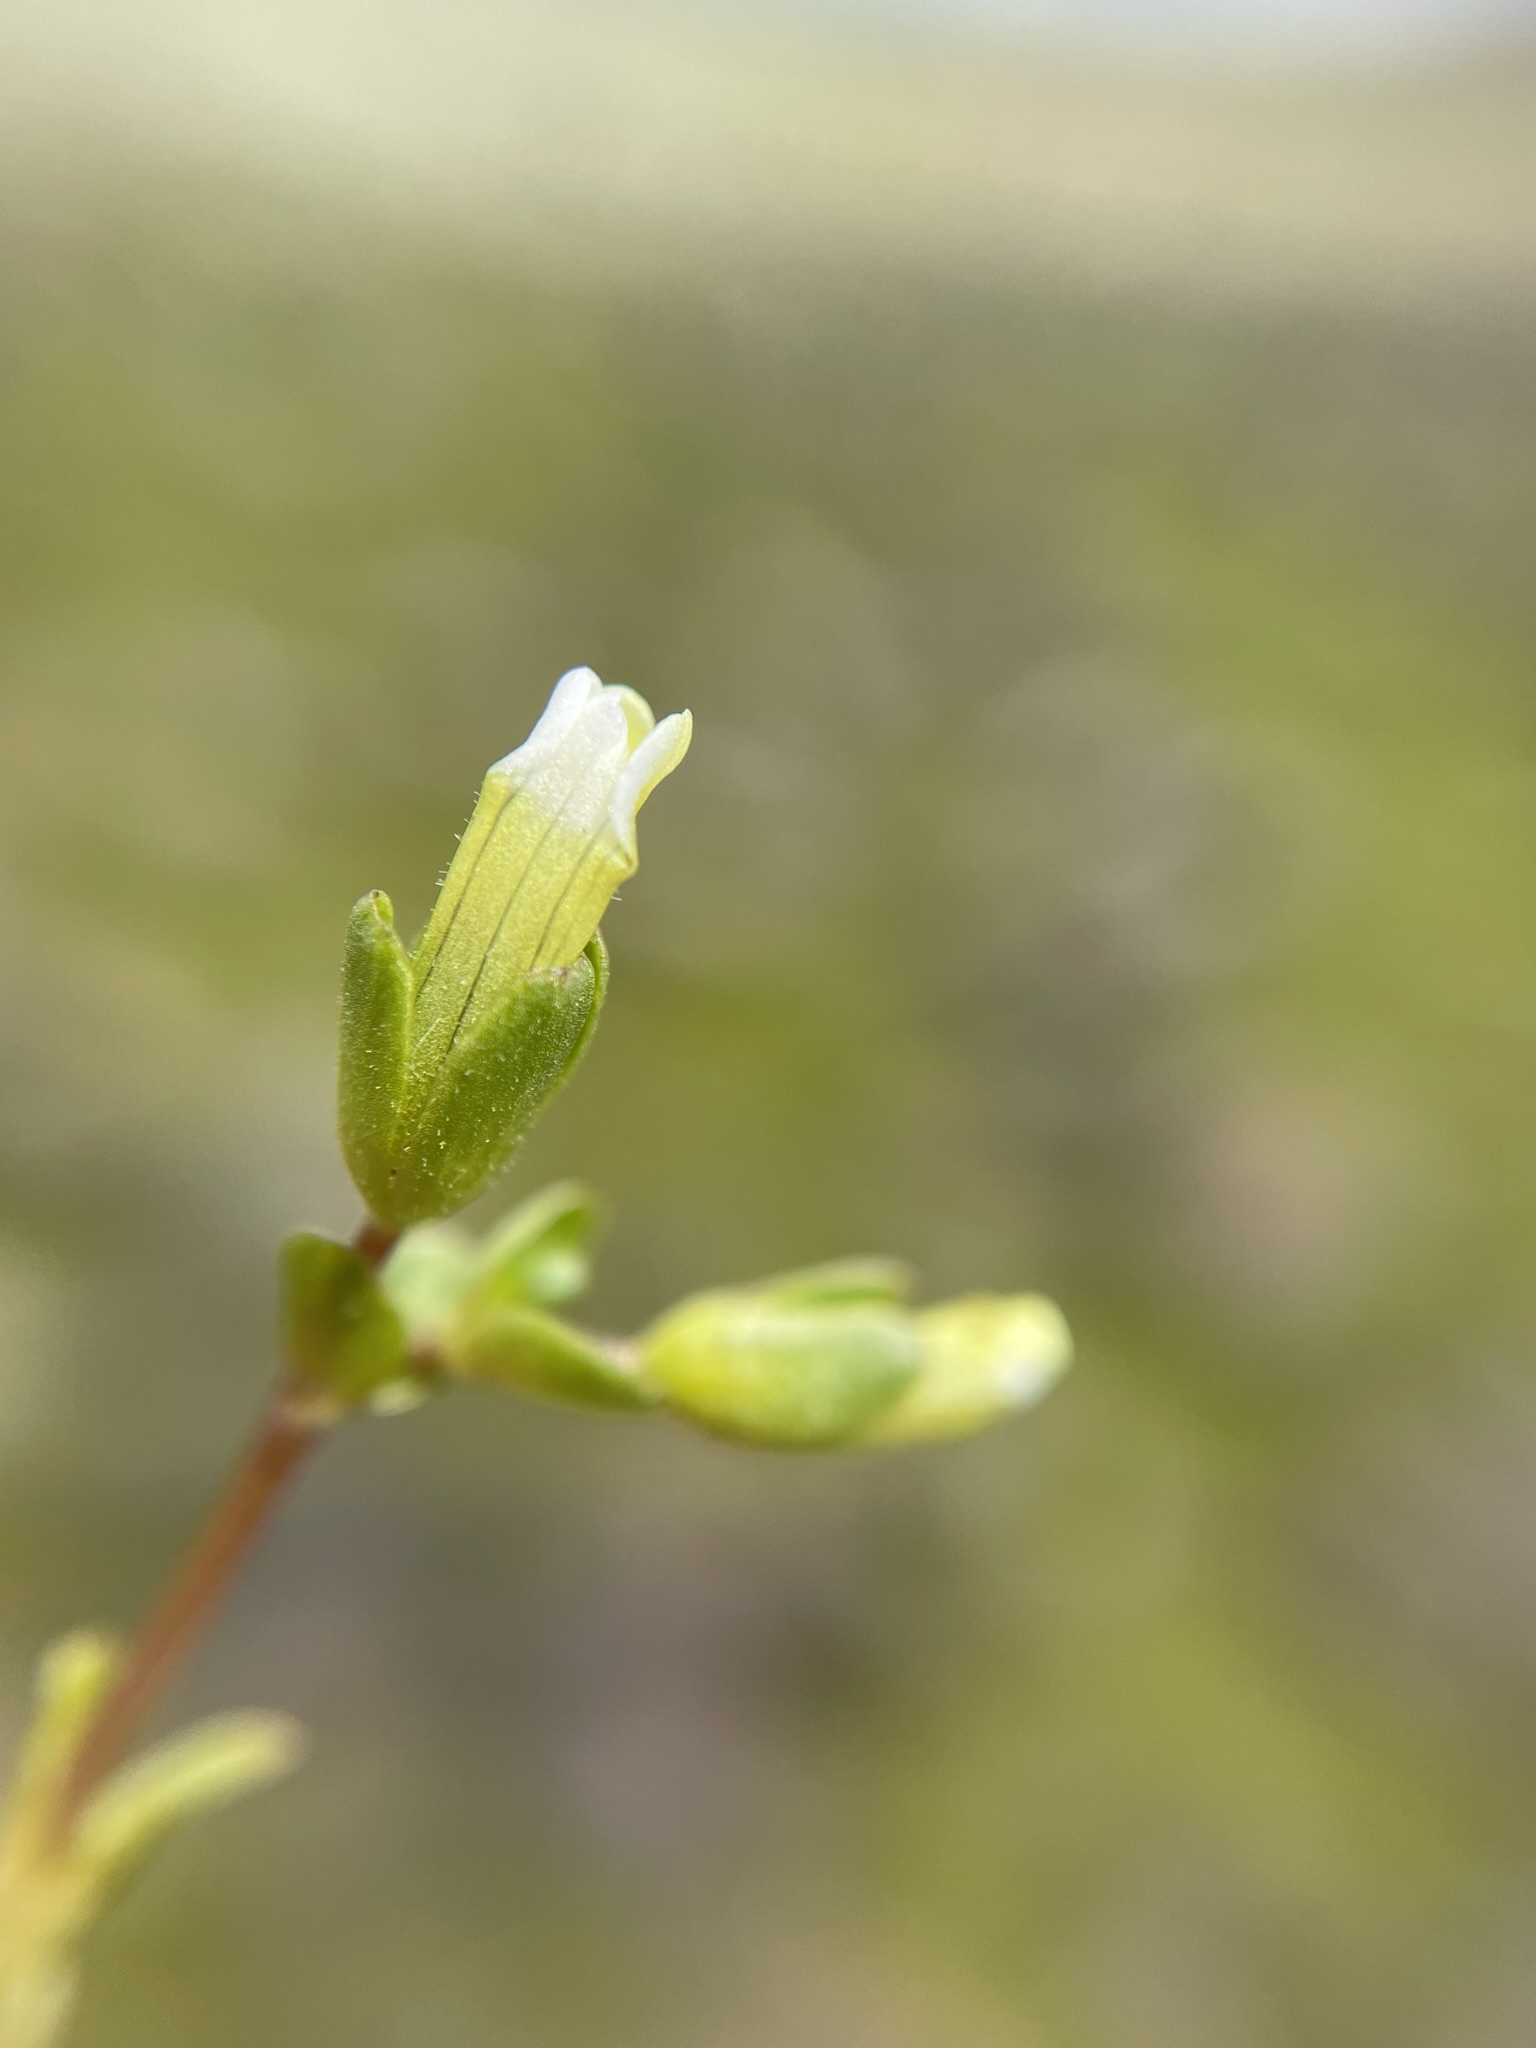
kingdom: Plantae
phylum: Tracheophyta
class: Magnoliopsida
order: Lamiales
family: Plantaginaceae
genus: Gratiola
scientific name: Gratiola heterosepala
